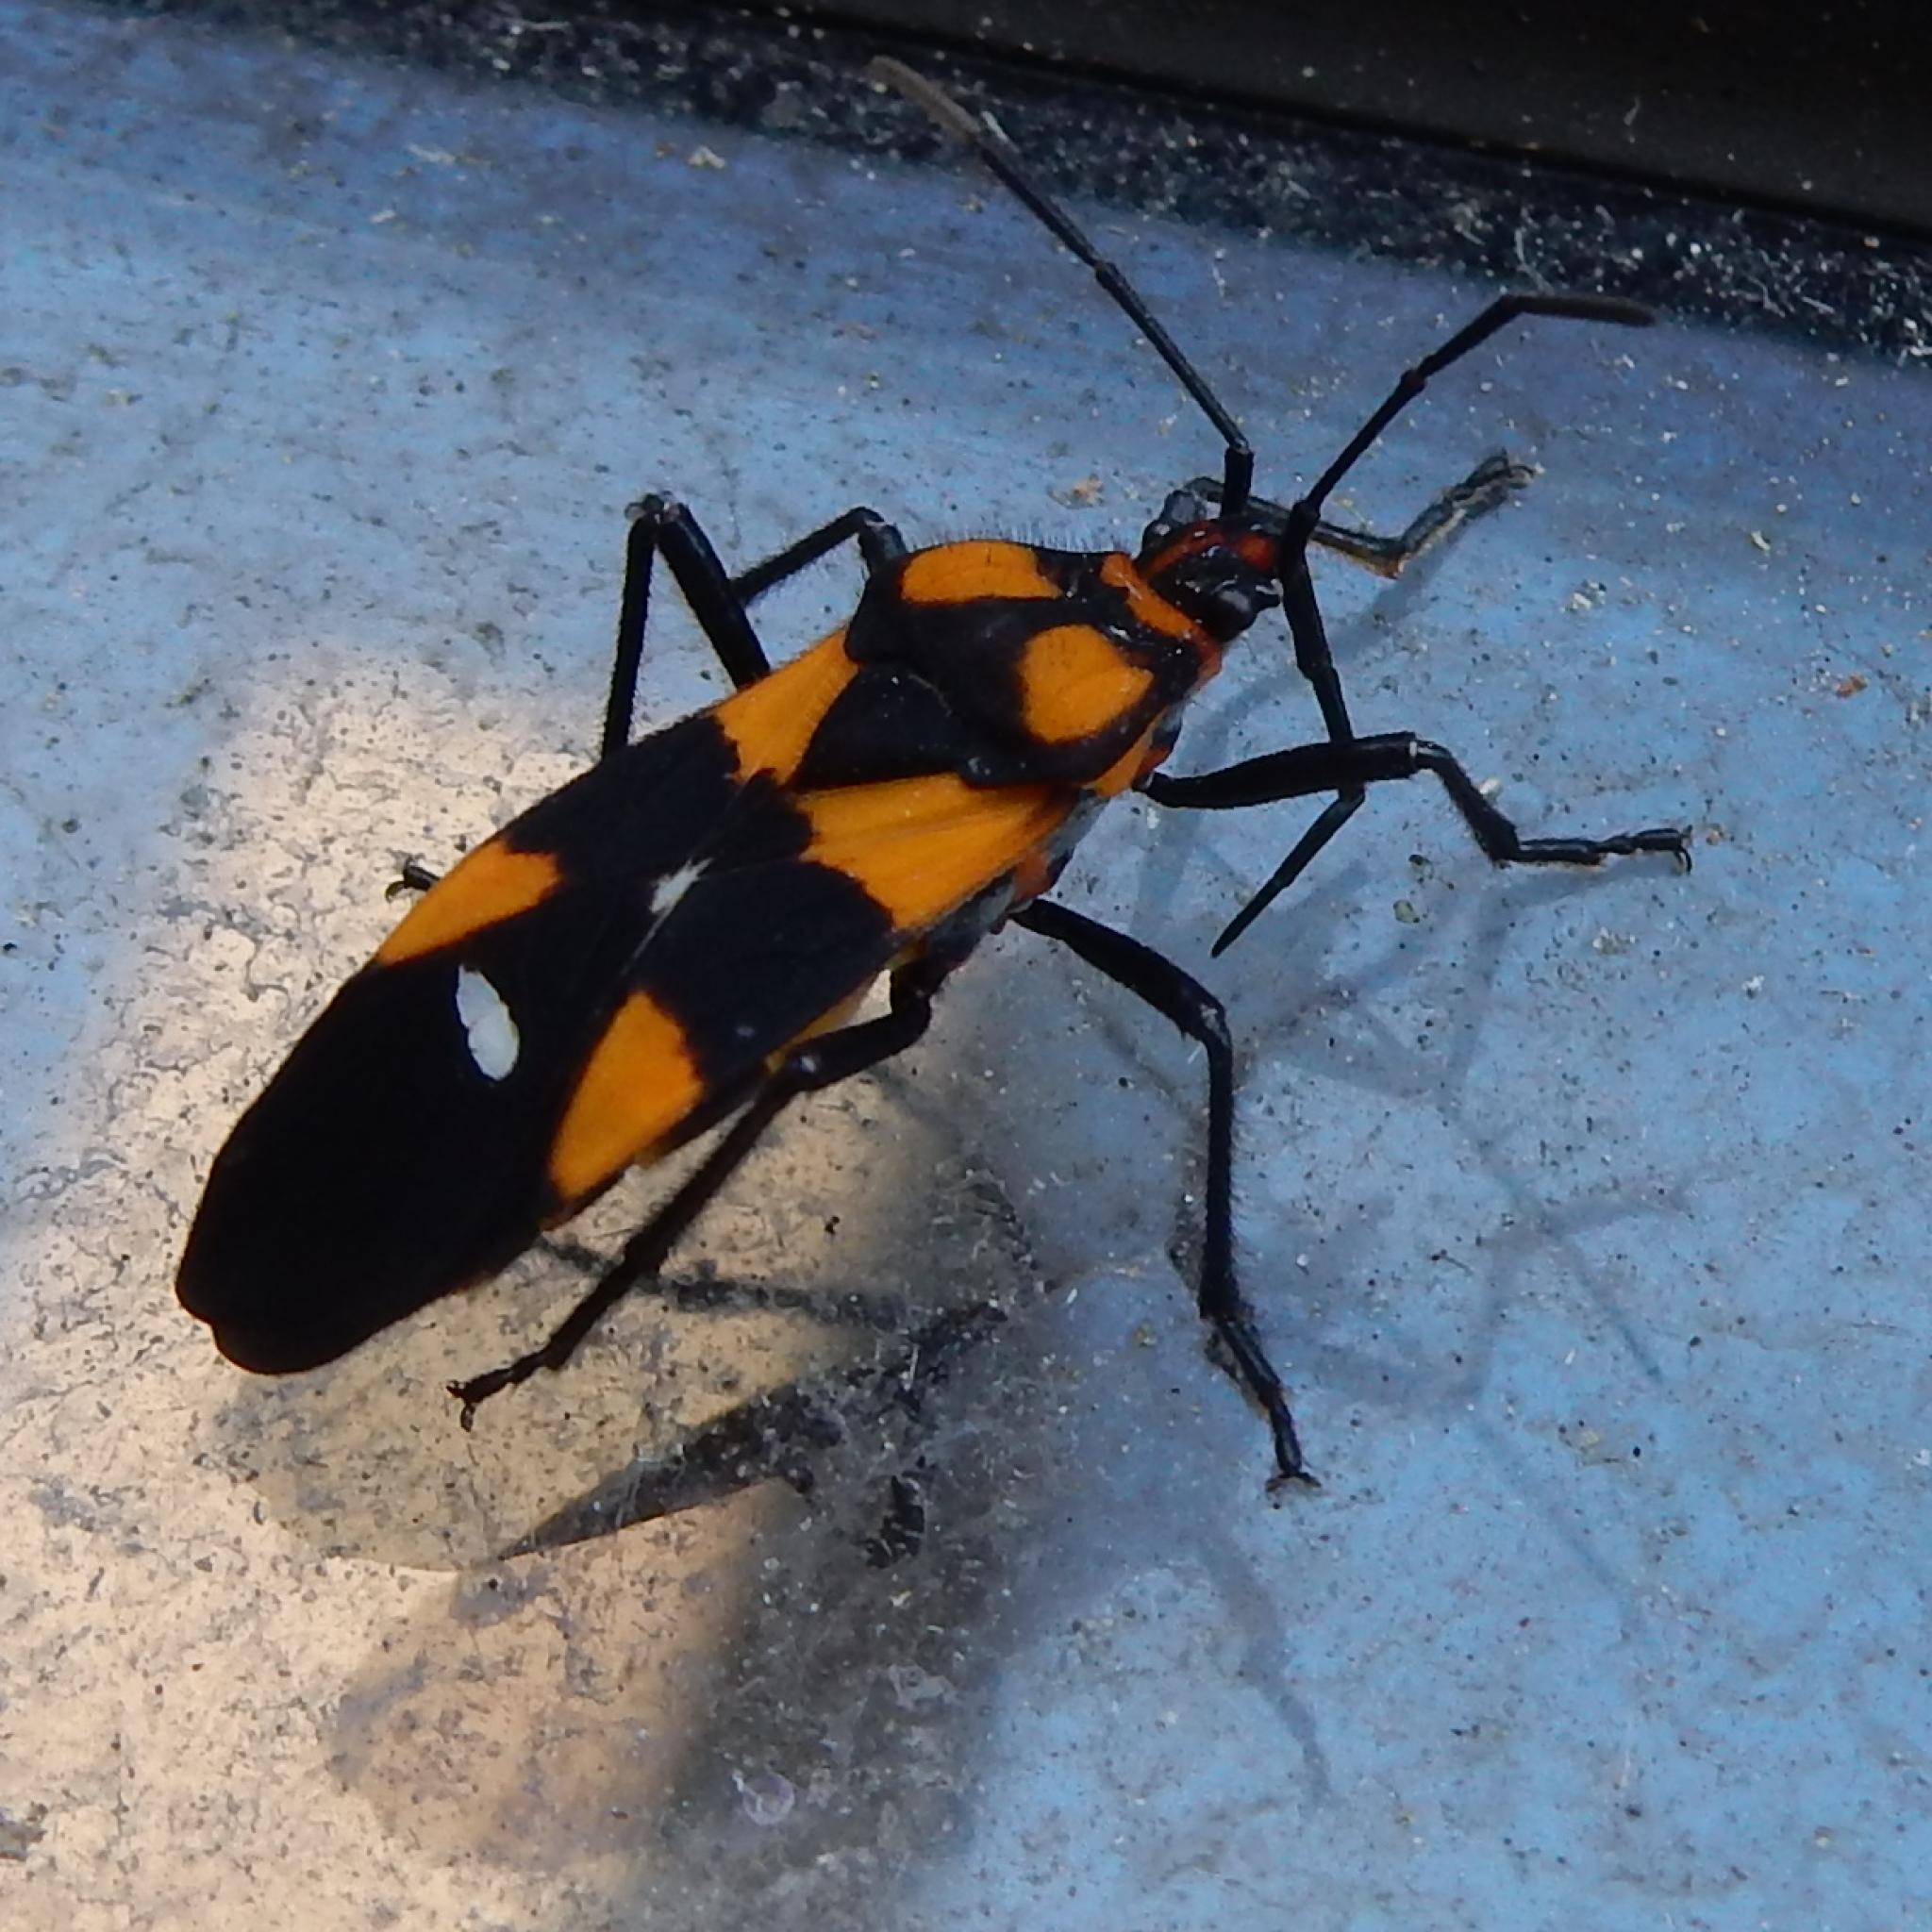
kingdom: Animalia
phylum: Arthropoda
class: Insecta
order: Hemiptera
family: Lygaeidae
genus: Oncopeltus
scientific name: Oncopeltus famelicus
